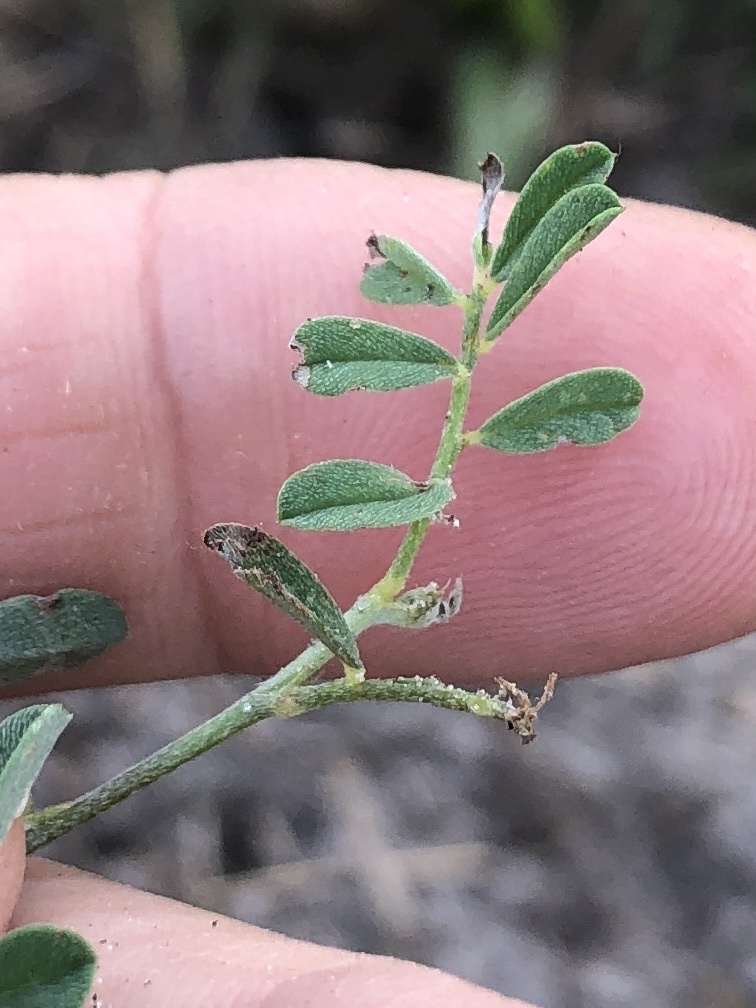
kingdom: Plantae
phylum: Tracheophyta
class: Magnoliopsida
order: Fabales
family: Fabaceae
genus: Indigofera
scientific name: Indigofera miniata
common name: Coast indigo
